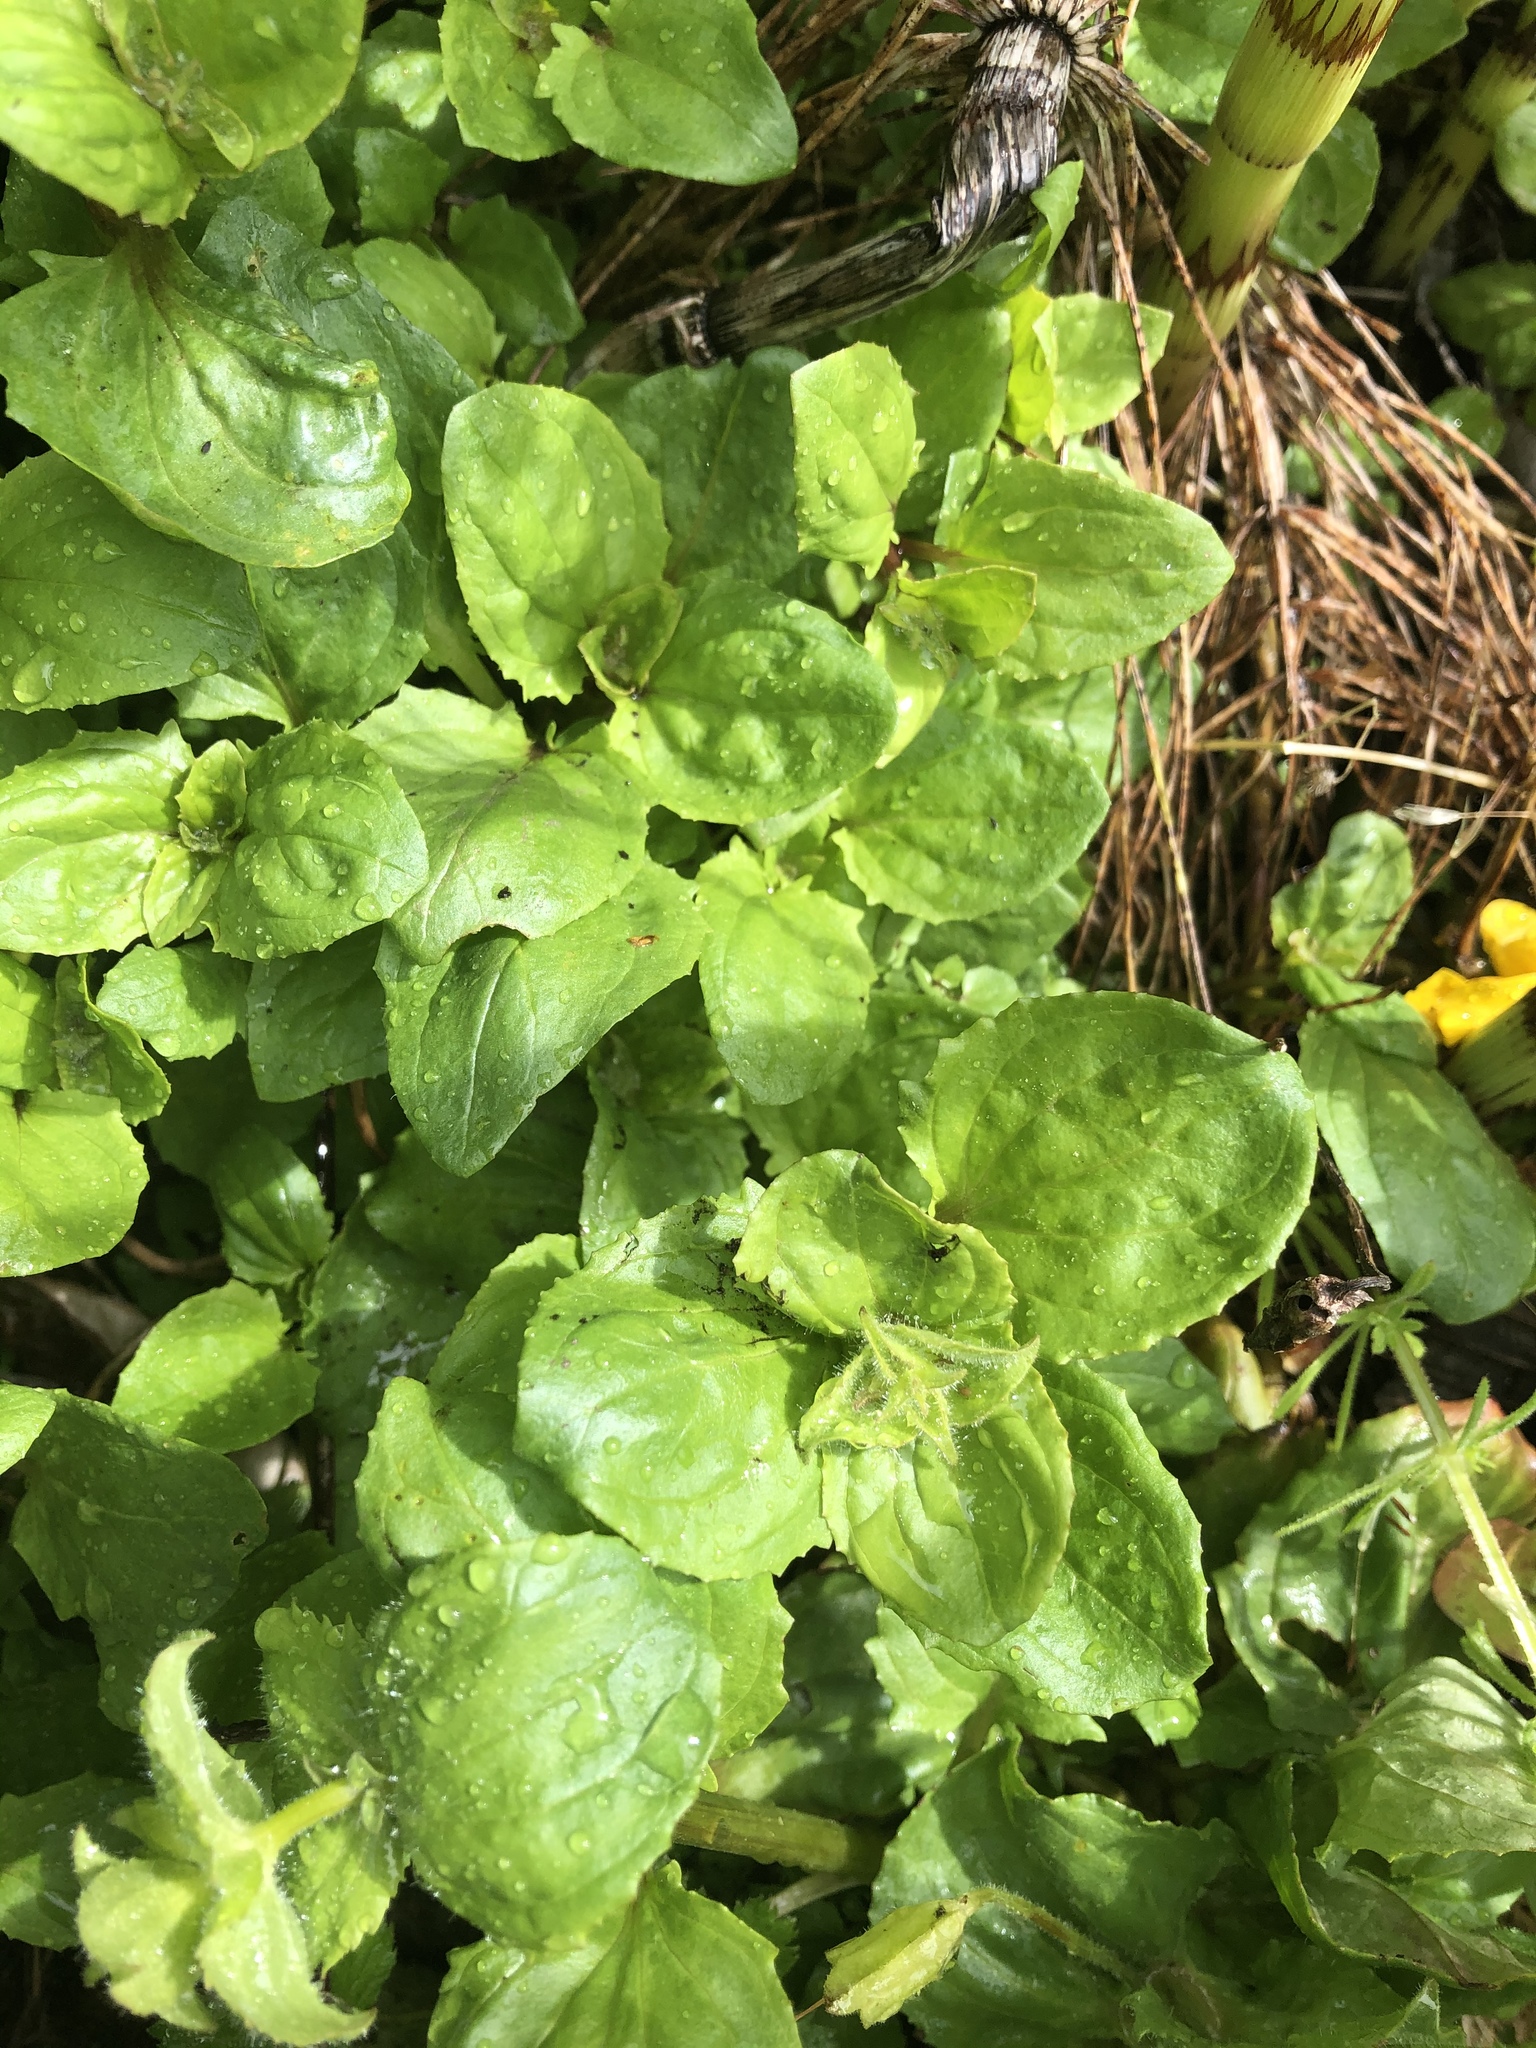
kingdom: Plantae
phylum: Tracheophyta
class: Magnoliopsida
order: Lamiales
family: Phrymaceae
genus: Erythranthe
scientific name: Erythranthe guttata
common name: Monkeyflower
